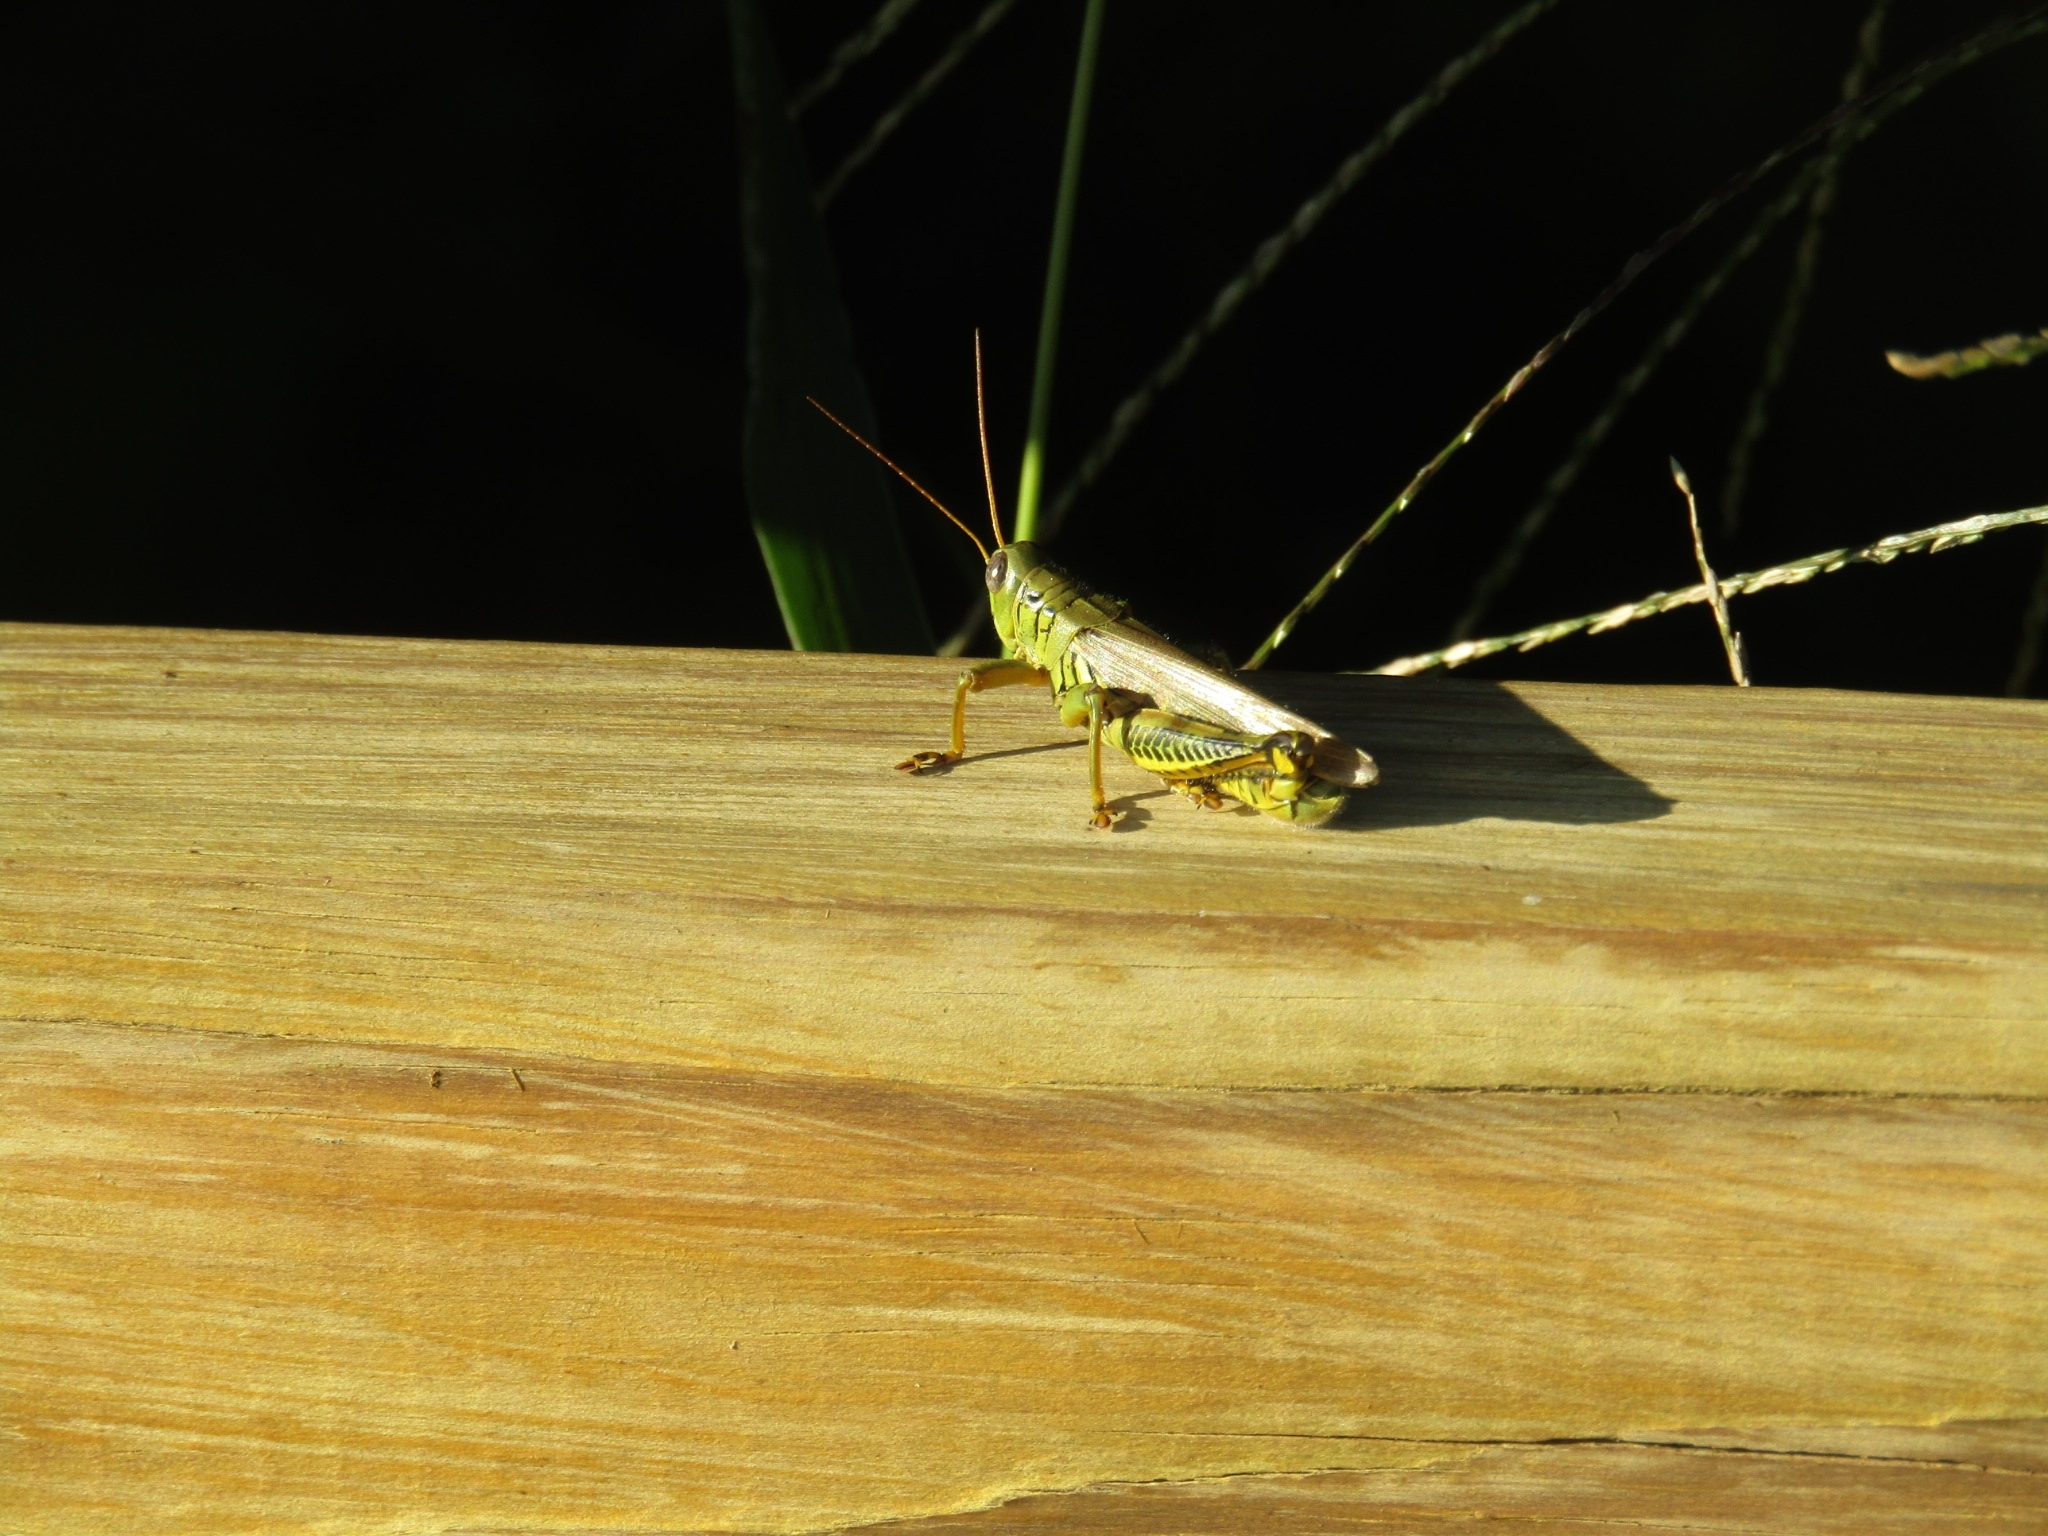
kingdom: Animalia
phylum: Arthropoda
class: Insecta
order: Orthoptera
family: Acrididae
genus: Melanoplus
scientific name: Melanoplus differentialis
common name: Differential grasshopper
